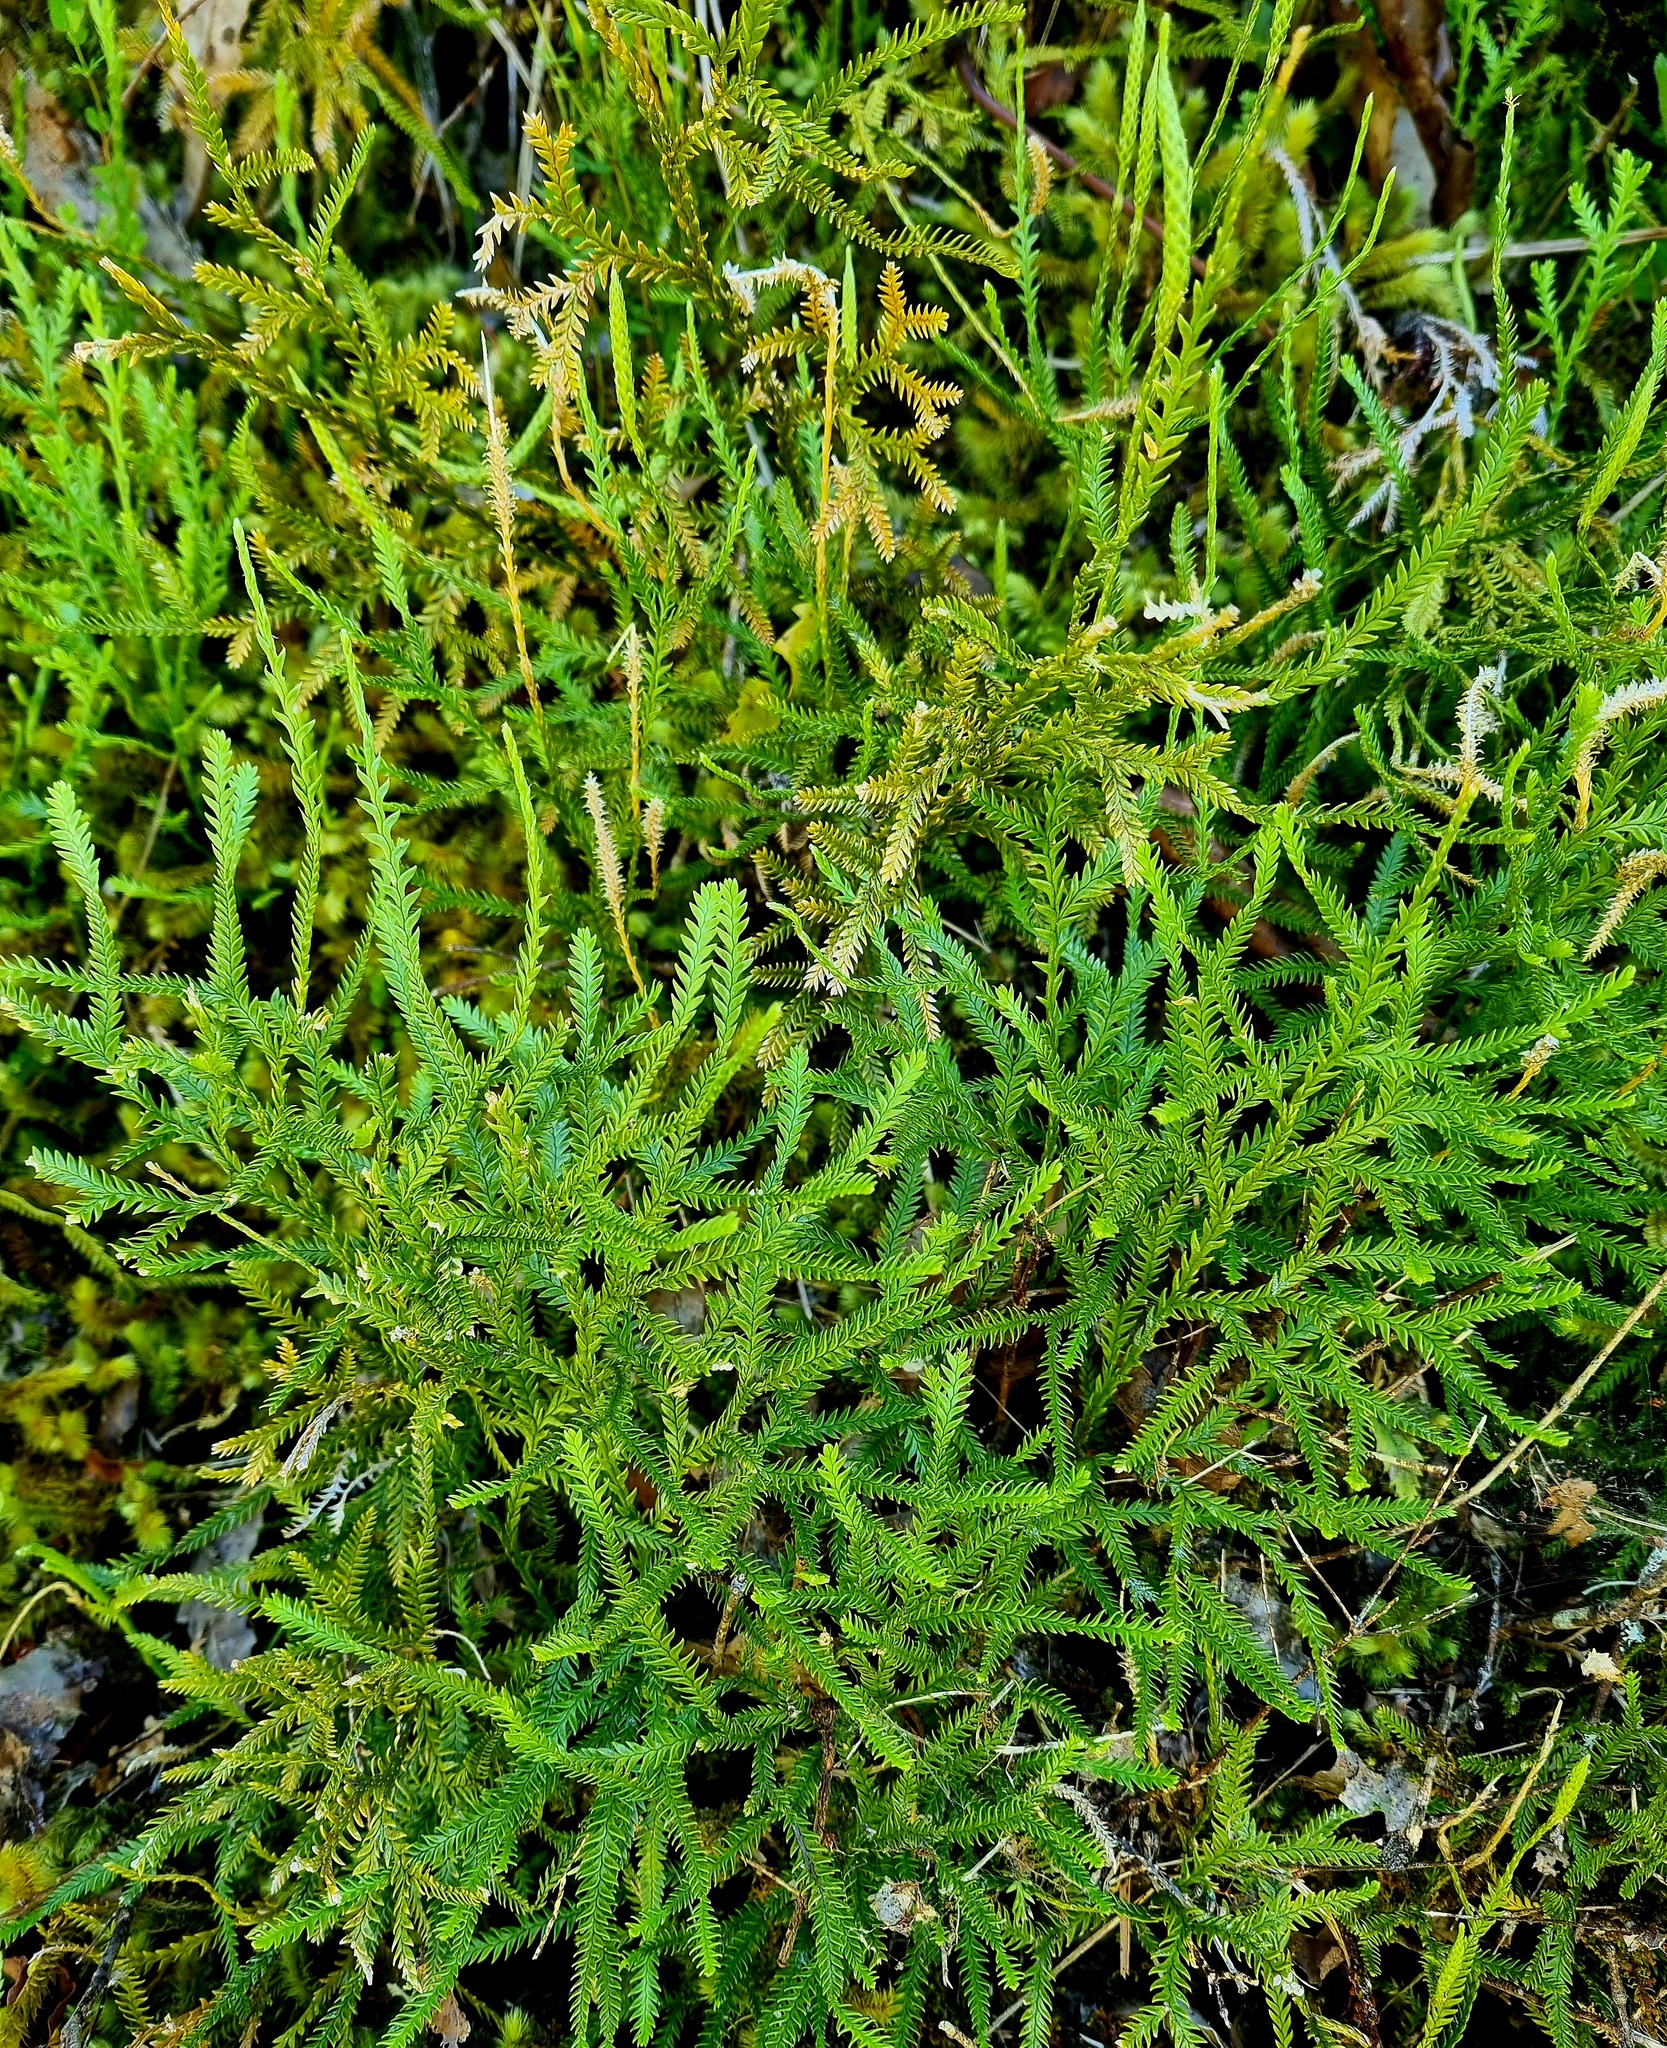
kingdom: Plantae
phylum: Tracheophyta
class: Lycopodiopsida
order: Lycopodiales
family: Lycopodiaceae
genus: Diphasium
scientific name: Diphasium scariosum
